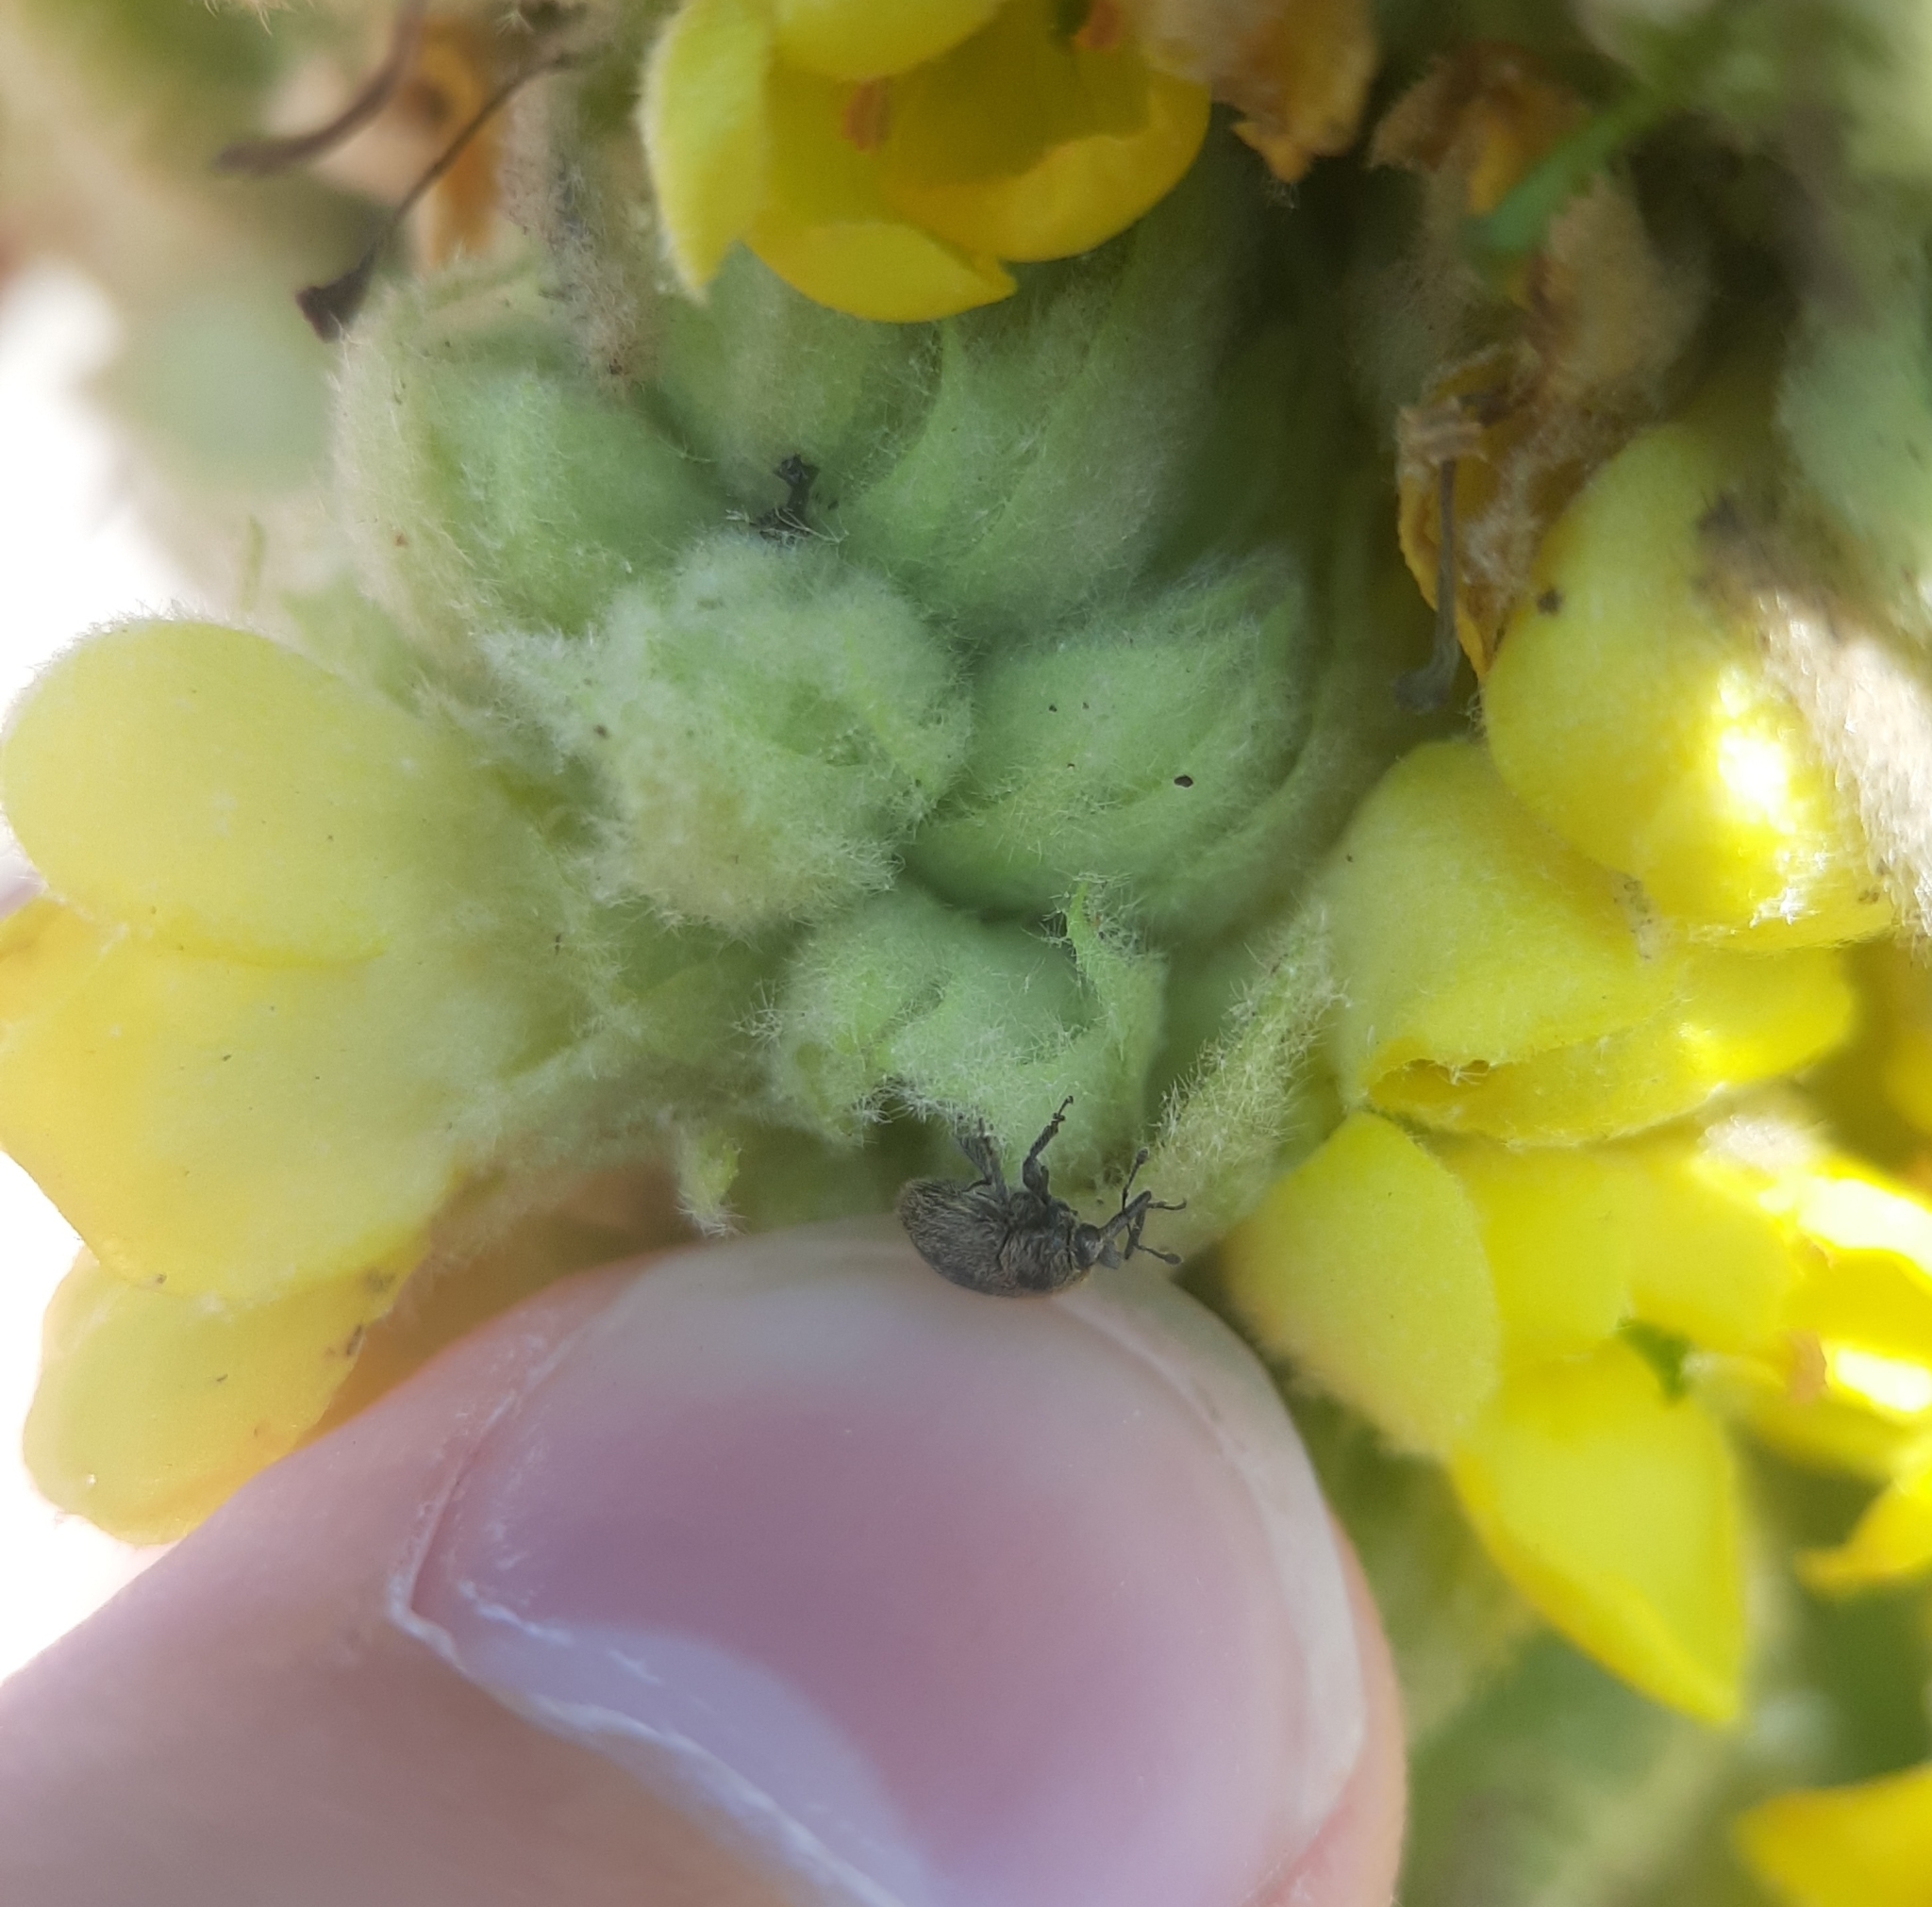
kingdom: Animalia
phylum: Arthropoda
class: Insecta
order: Coleoptera
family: Curculionidae
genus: Rhinusa
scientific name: Rhinusa tetra
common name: Weevil
